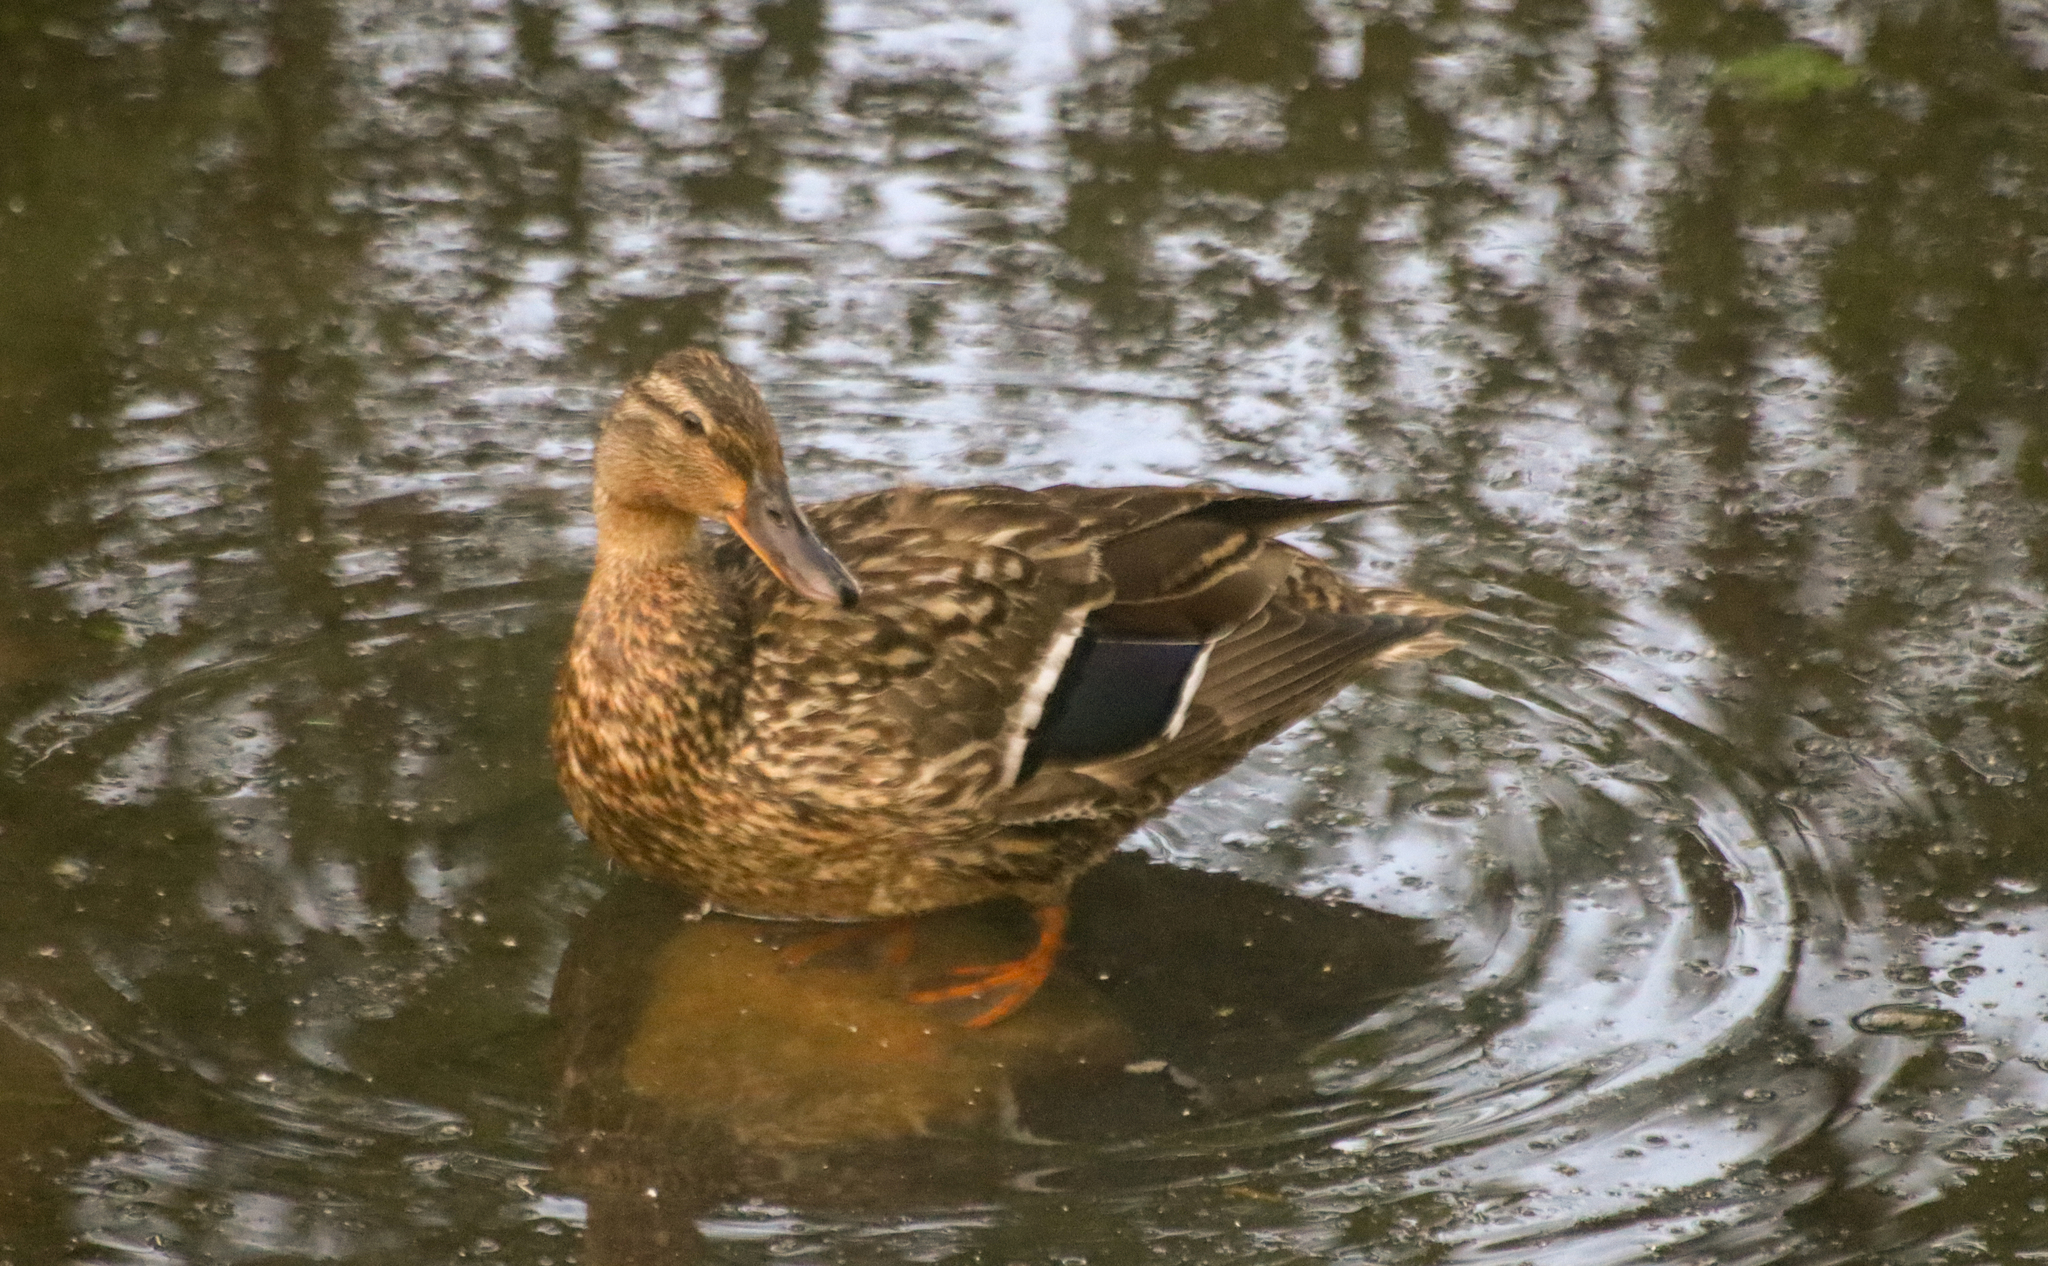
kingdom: Animalia
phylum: Chordata
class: Aves
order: Anseriformes
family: Anatidae
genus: Anas
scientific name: Anas platyrhynchos
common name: Mallard
